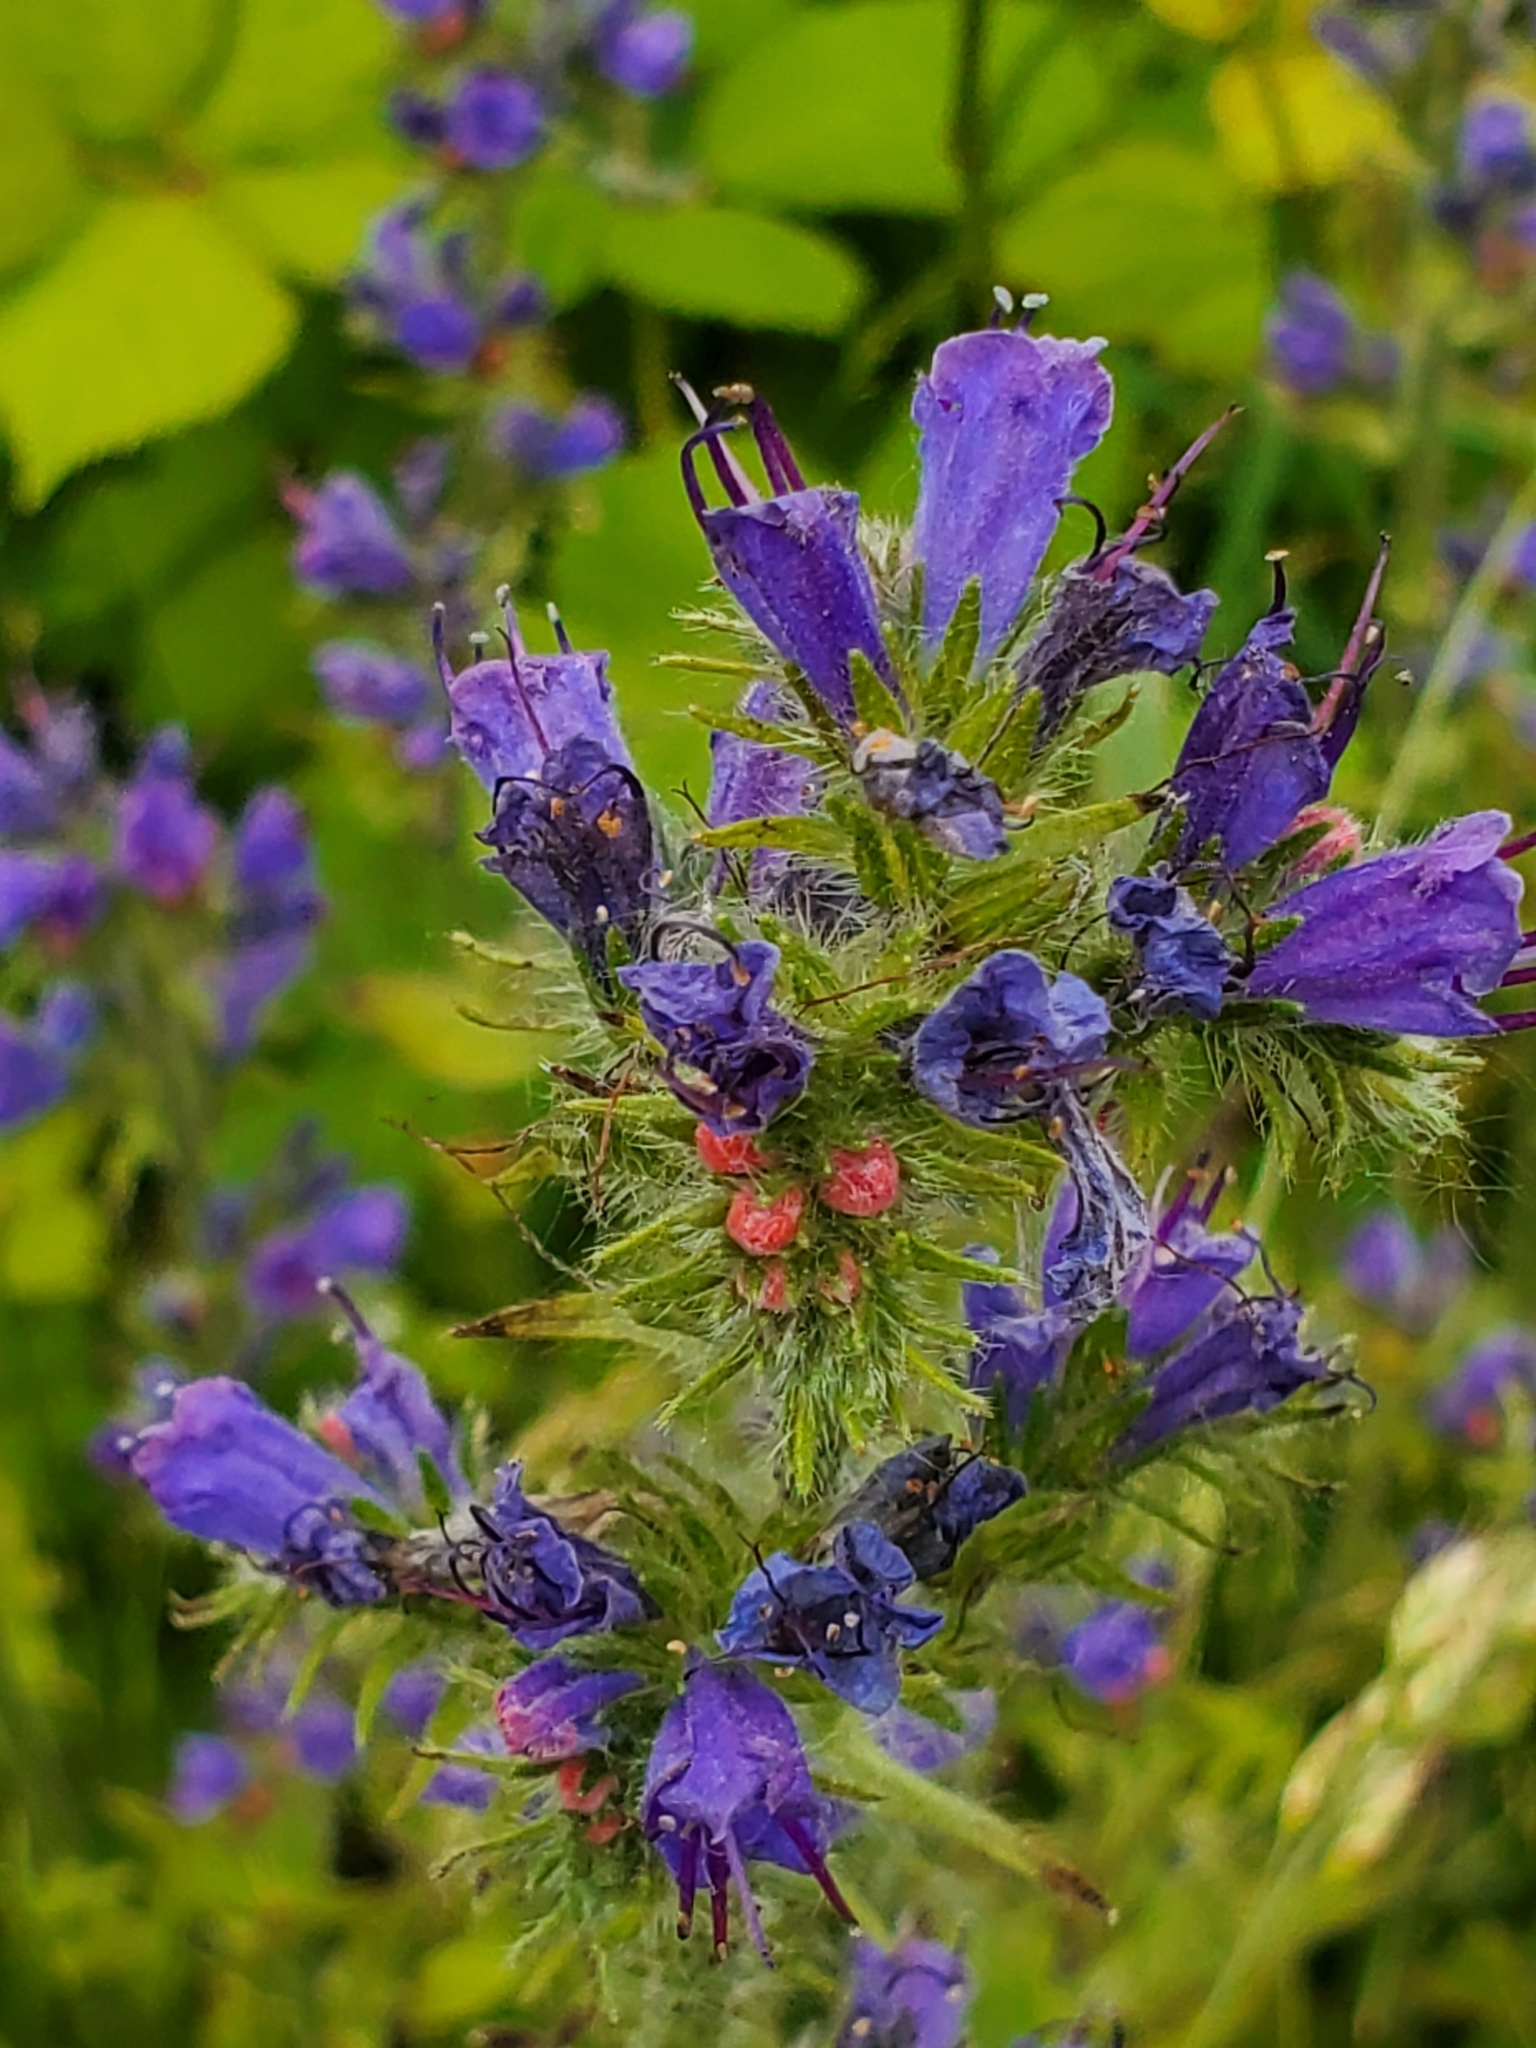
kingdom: Plantae
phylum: Tracheophyta
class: Magnoliopsida
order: Boraginales
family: Boraginaceae
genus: Echium
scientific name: Echium vulgare
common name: Common viper's bugloss
